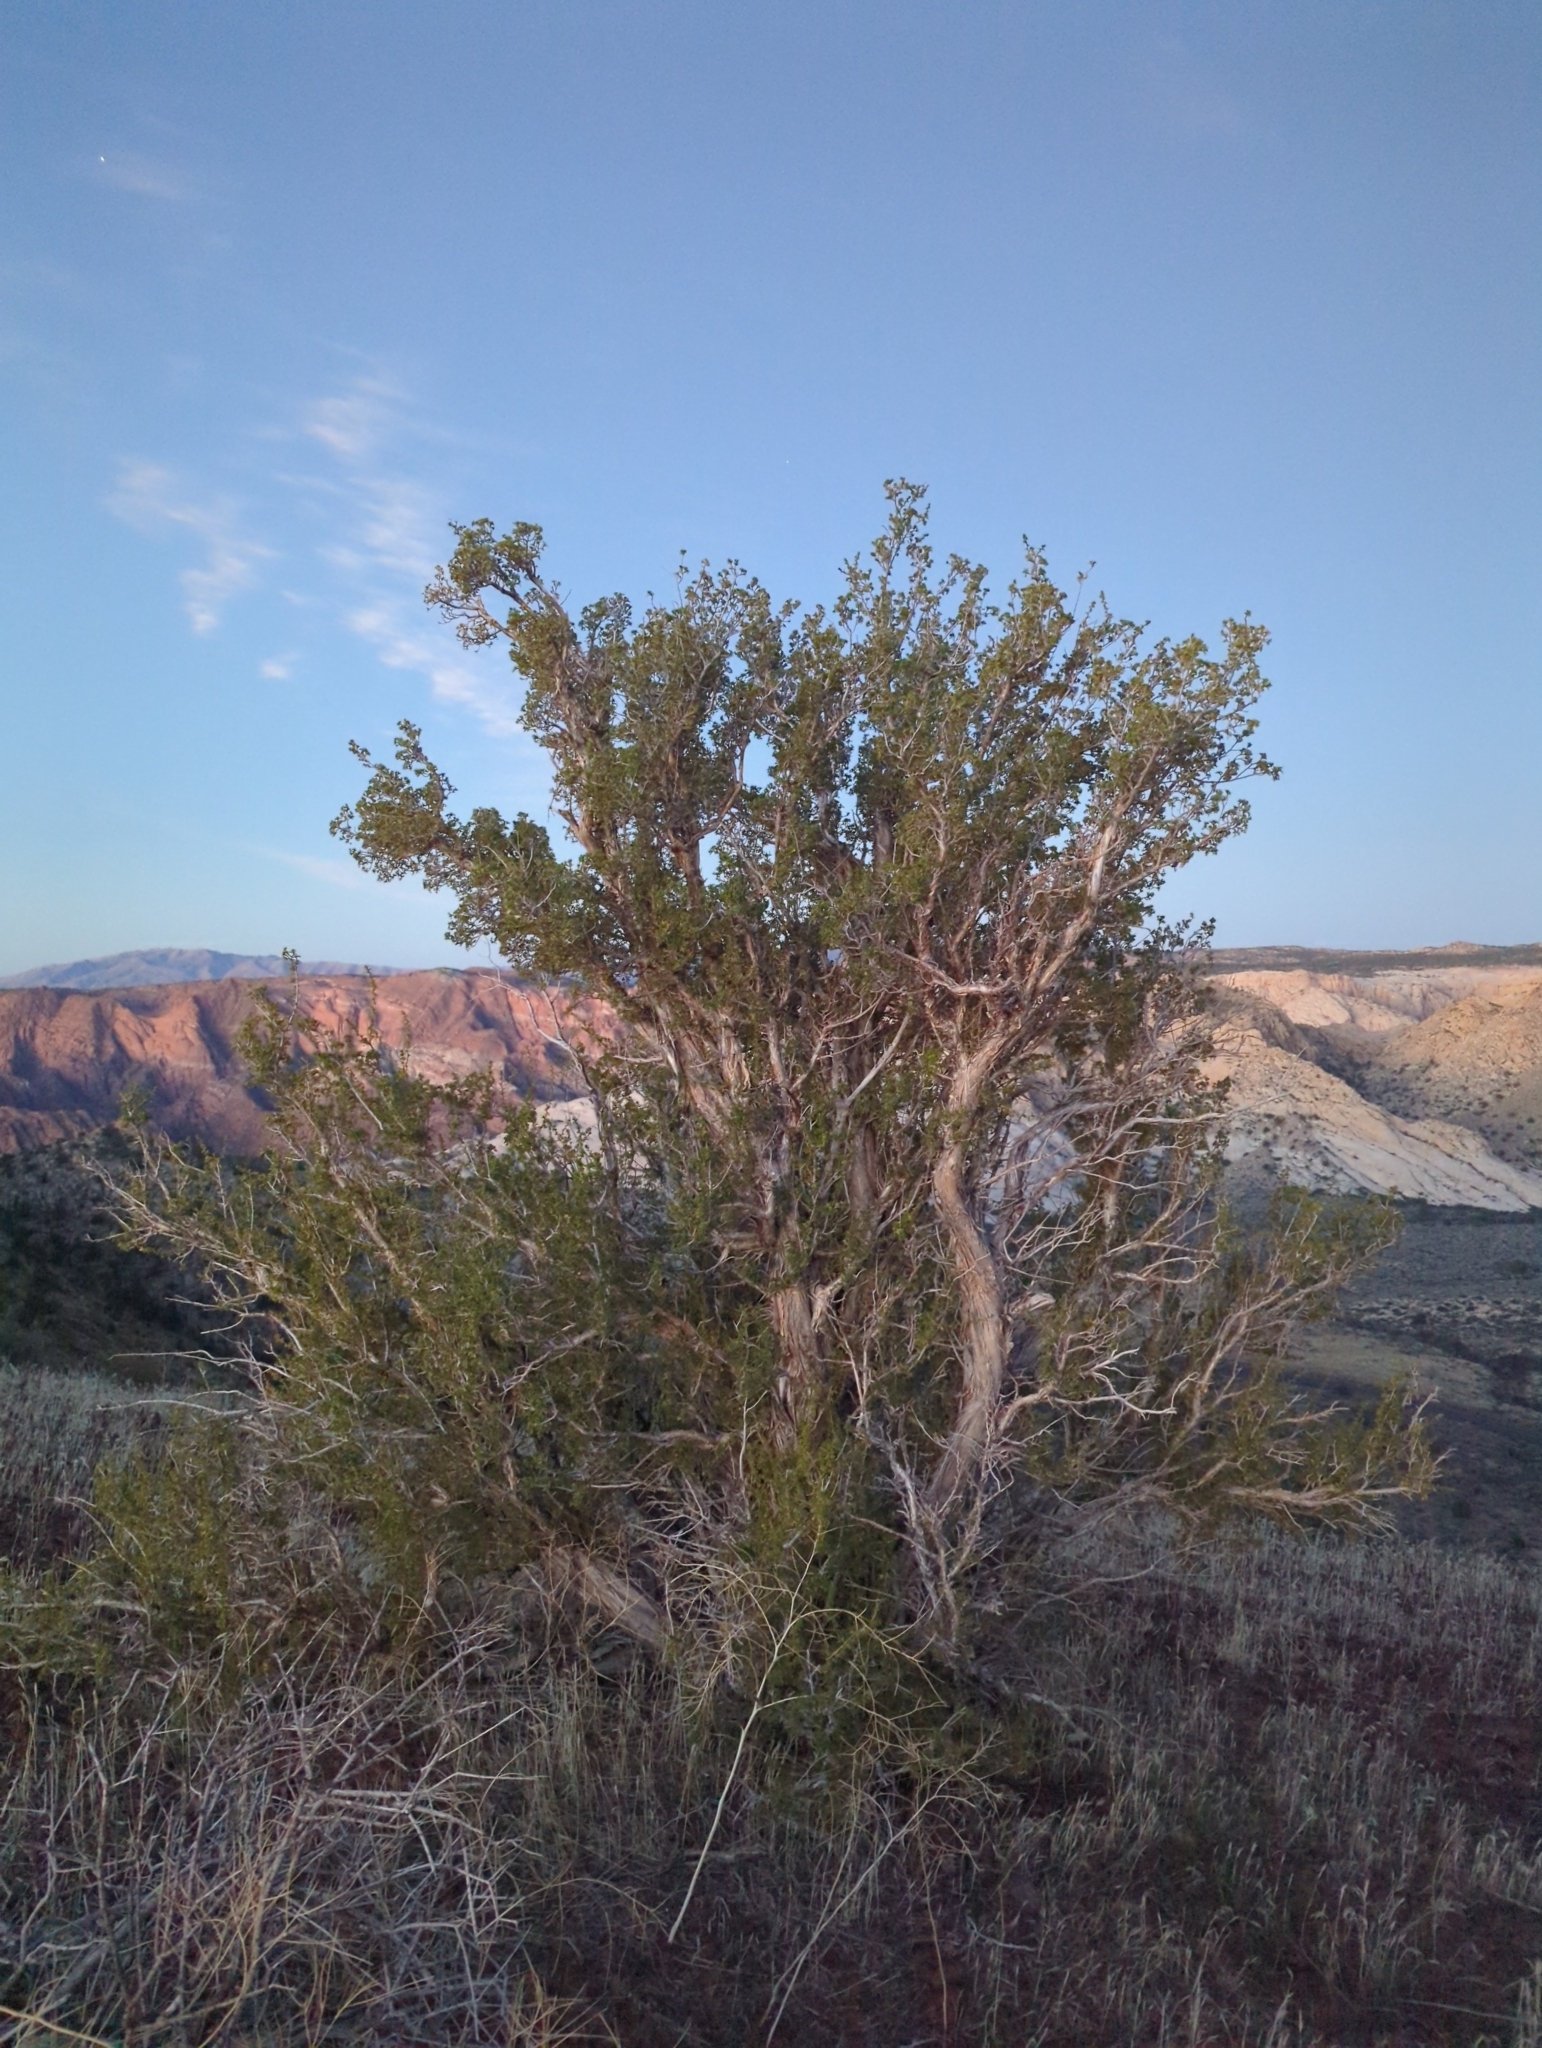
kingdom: Plantae
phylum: Tracheophyta
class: Magnoliopsida
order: Rosales
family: Rosaceae
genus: Purshia
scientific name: Purshia stansburiana
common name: Stansbury's cliffrose
